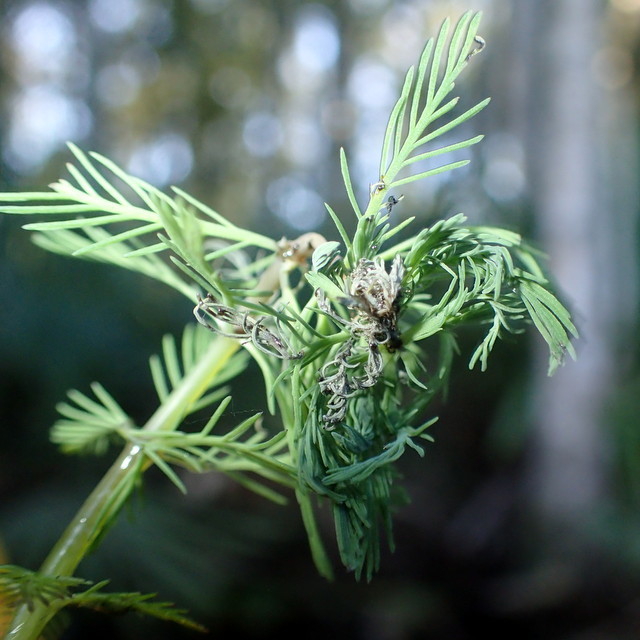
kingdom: Plantae
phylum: Tracheophyta
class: Magnoliopsida
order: Saxifragales
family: Haloragaceae
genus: Myriophyllum
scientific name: Myriophyllum aquaticum
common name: Parrot's feather
